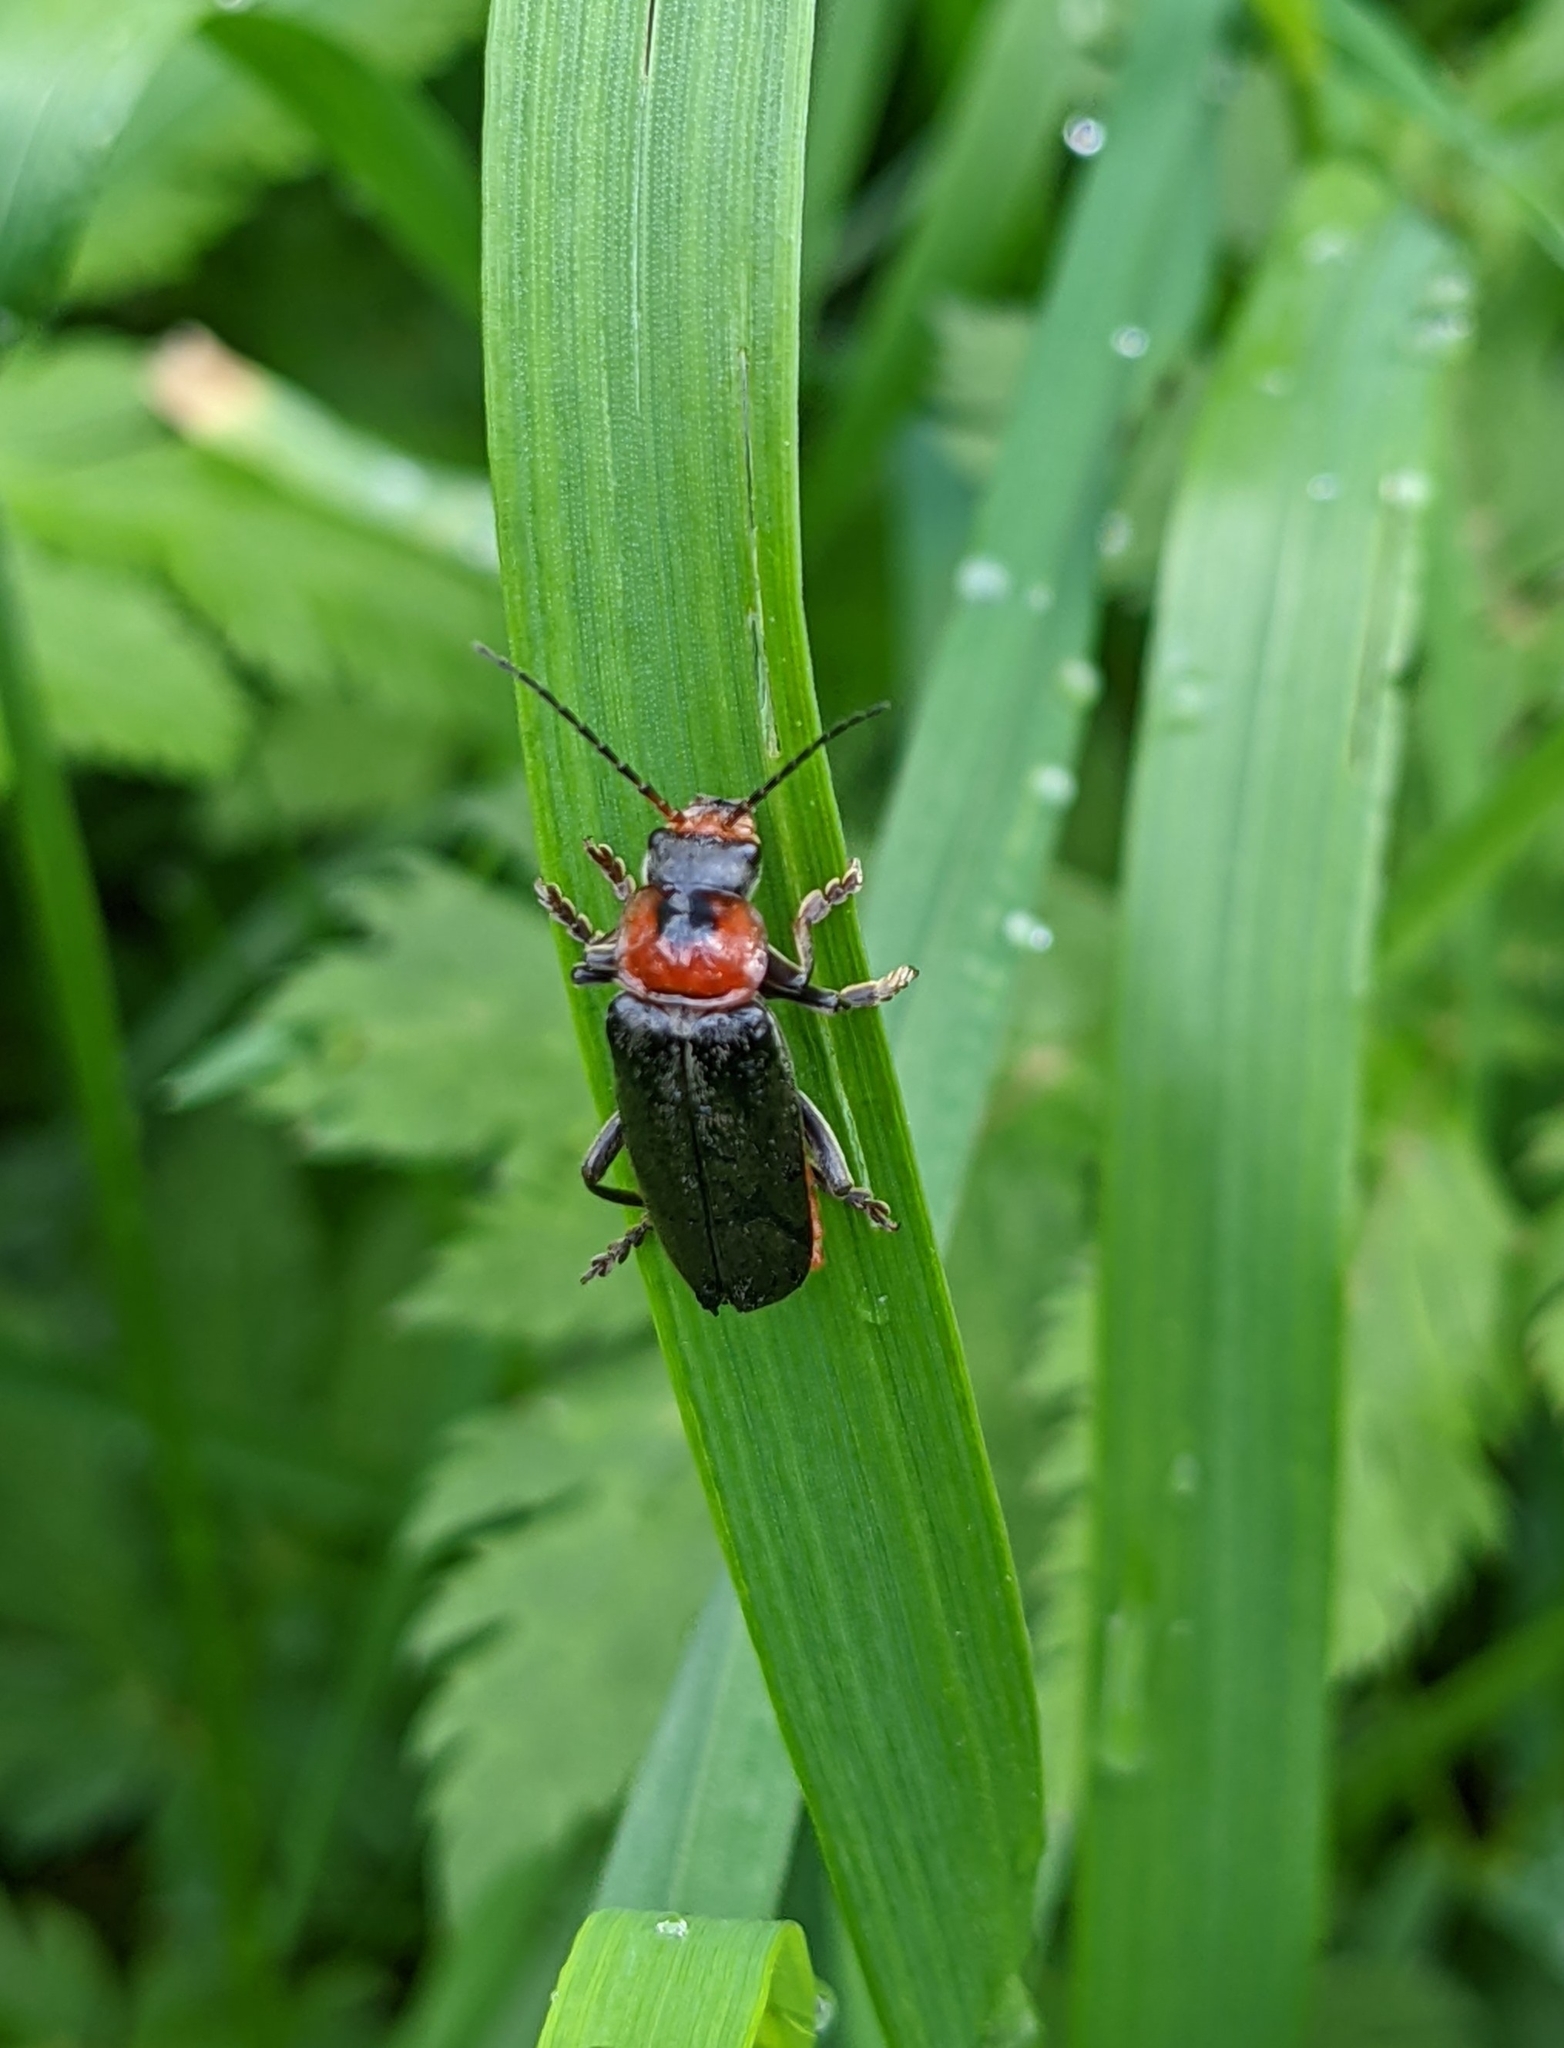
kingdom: Animalia
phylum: Arthropoda
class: Insecta
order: Coleoptera
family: Cantharidae
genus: Cantharis
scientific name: Cantharis fusca
